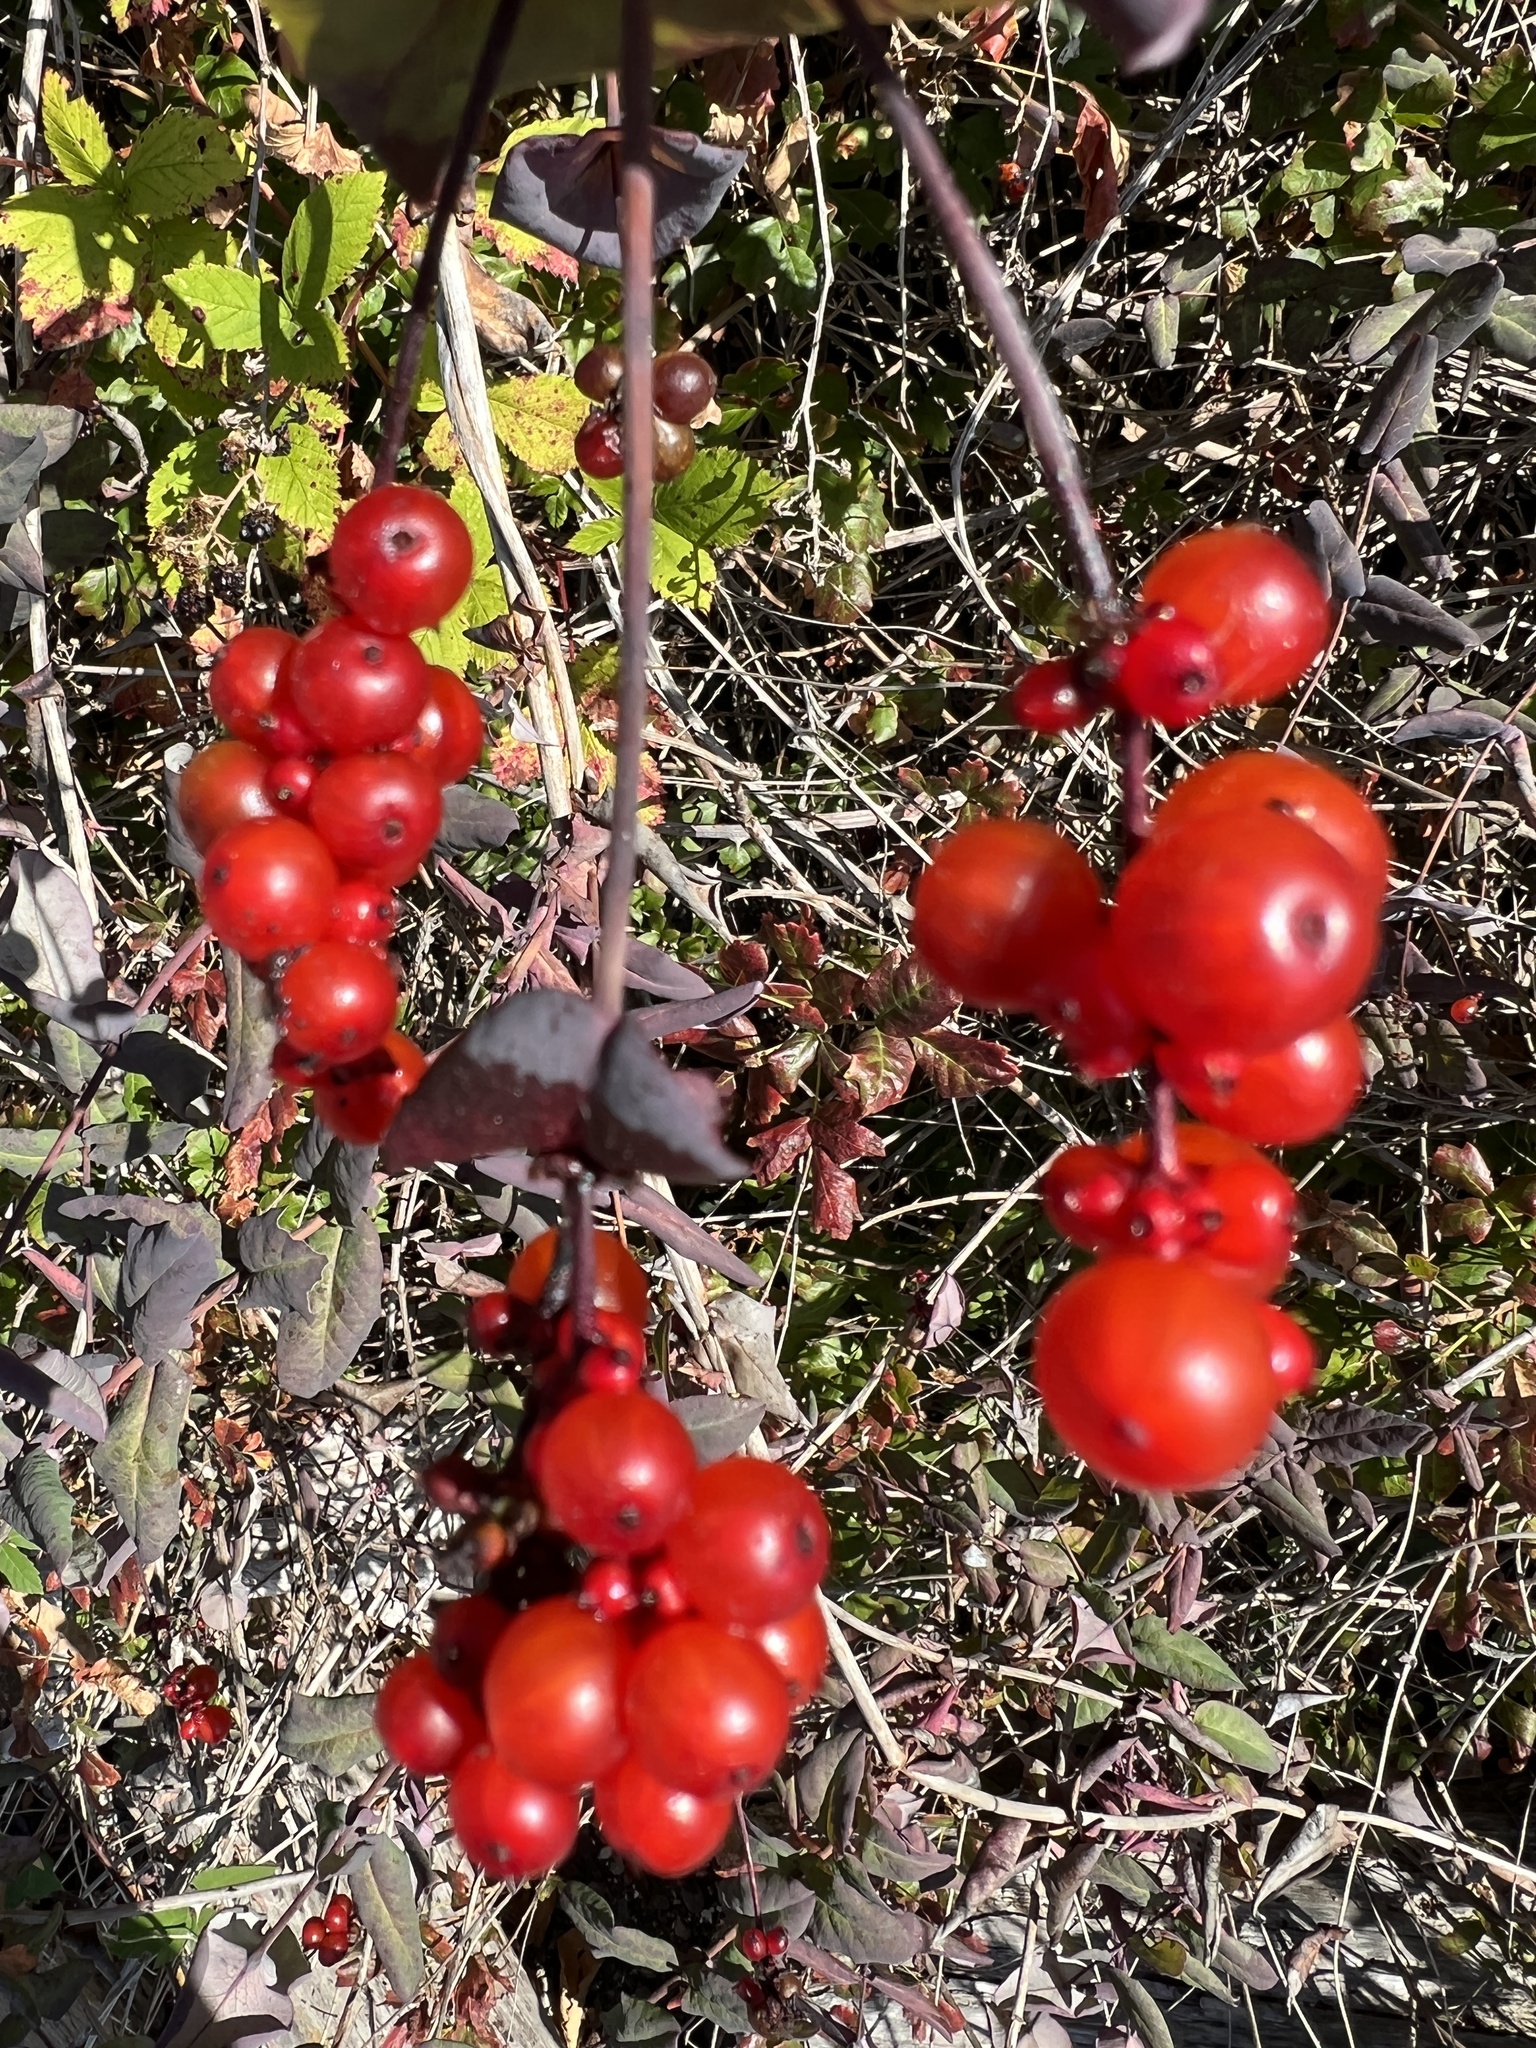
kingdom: Plantae
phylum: Tracheophyta
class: Magnoliopsida
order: Dipsacales
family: Caprifoliaceae
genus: Lonicera
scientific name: Lonicera hispidula
